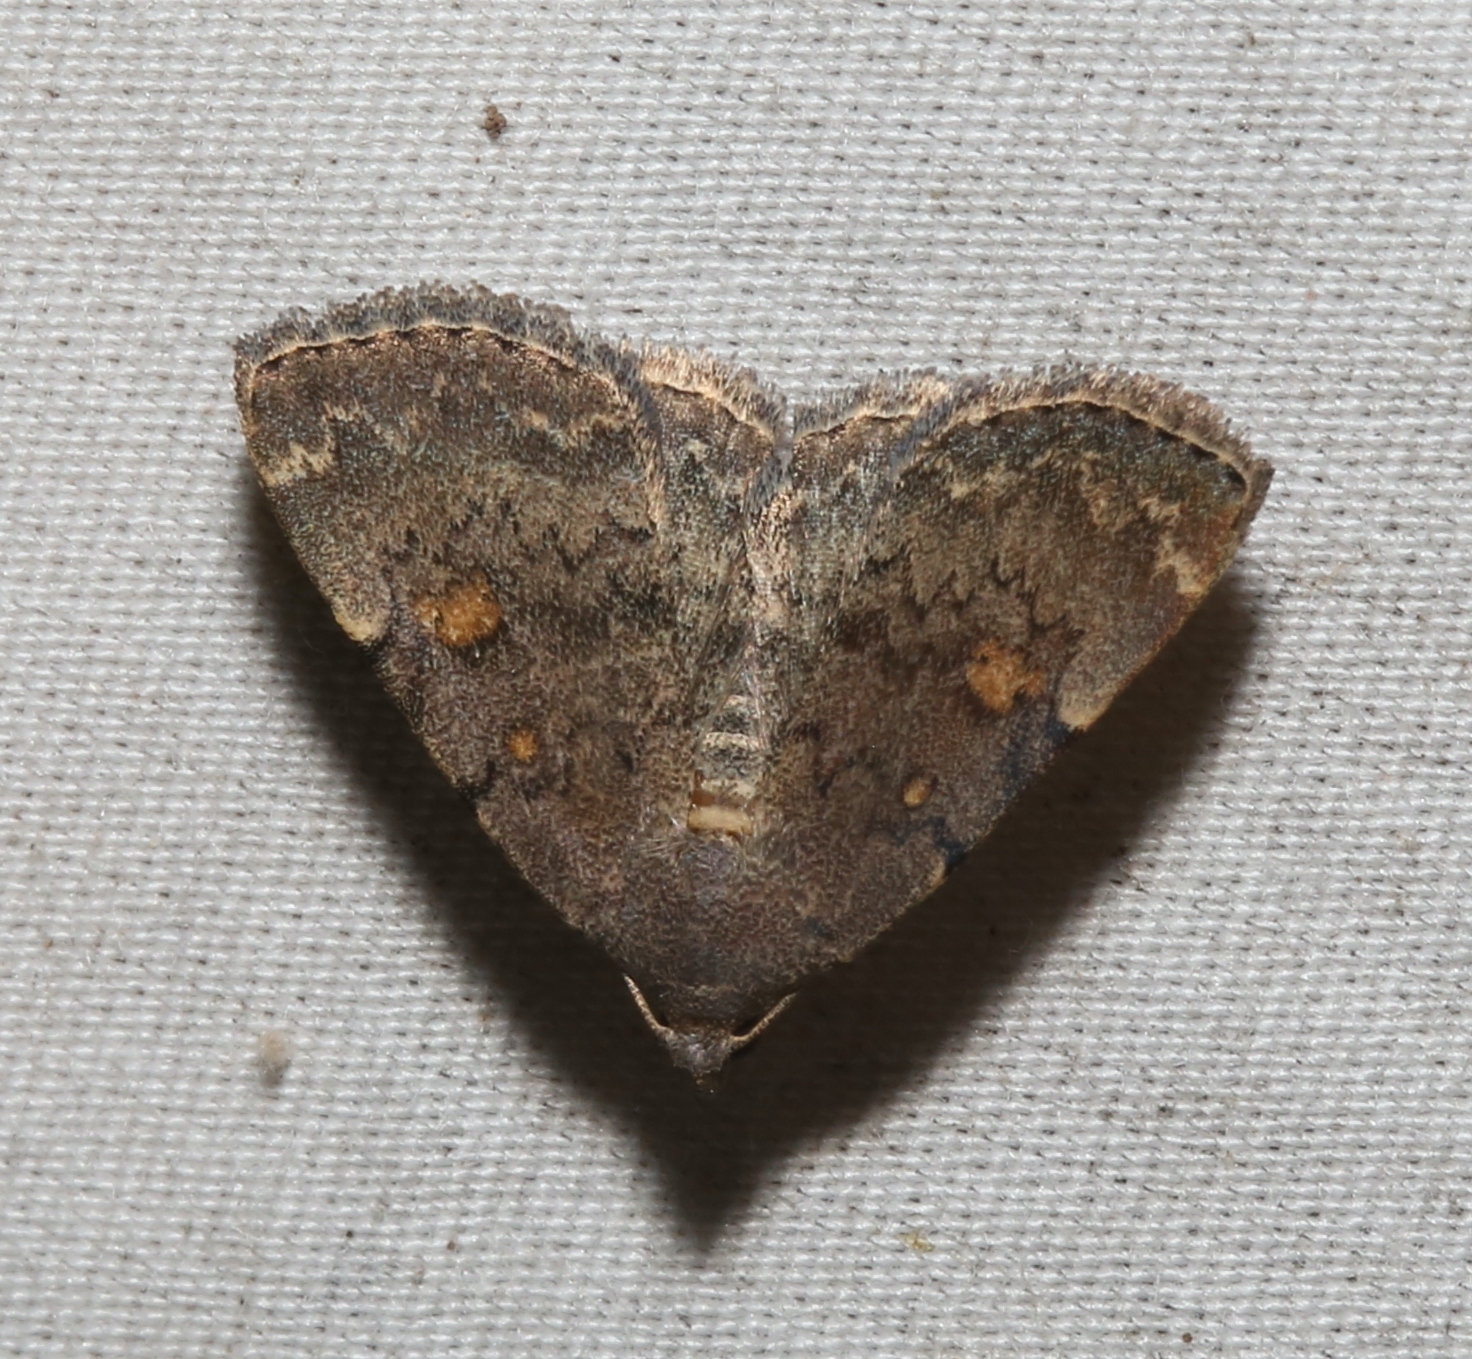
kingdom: Animalia
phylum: Arthropoda
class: Insecta
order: Lepidoptera
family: Erebidae
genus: Idia
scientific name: Idia aemula
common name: Common idia moth
